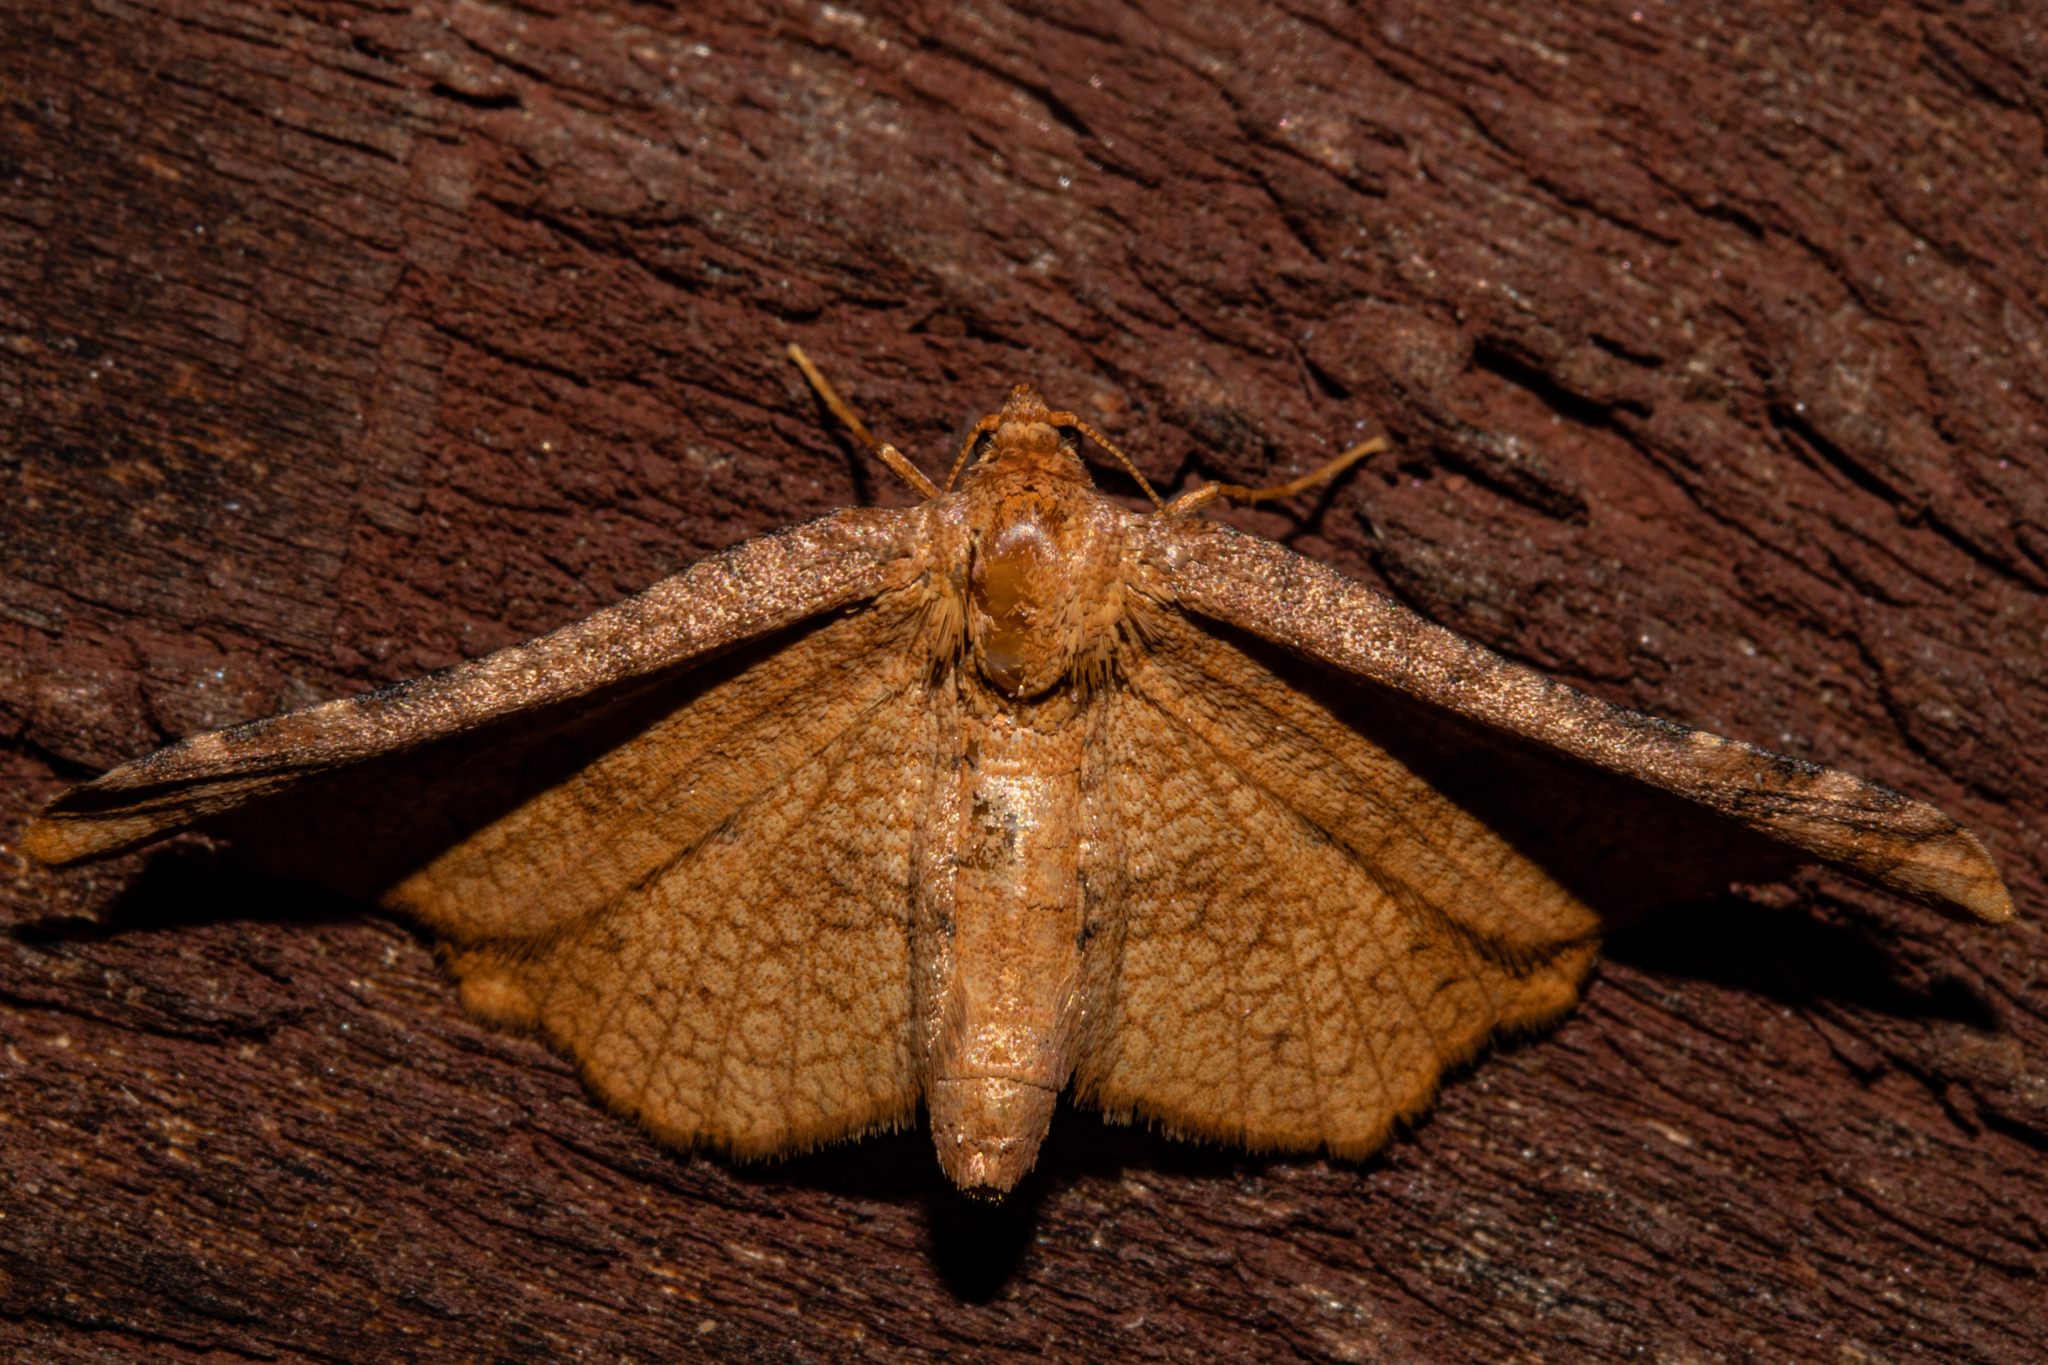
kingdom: Animalia
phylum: Arthropoda
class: Insecta
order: Lepidoptera
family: Thyrididae
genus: Morova
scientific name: Morova subfasciata
